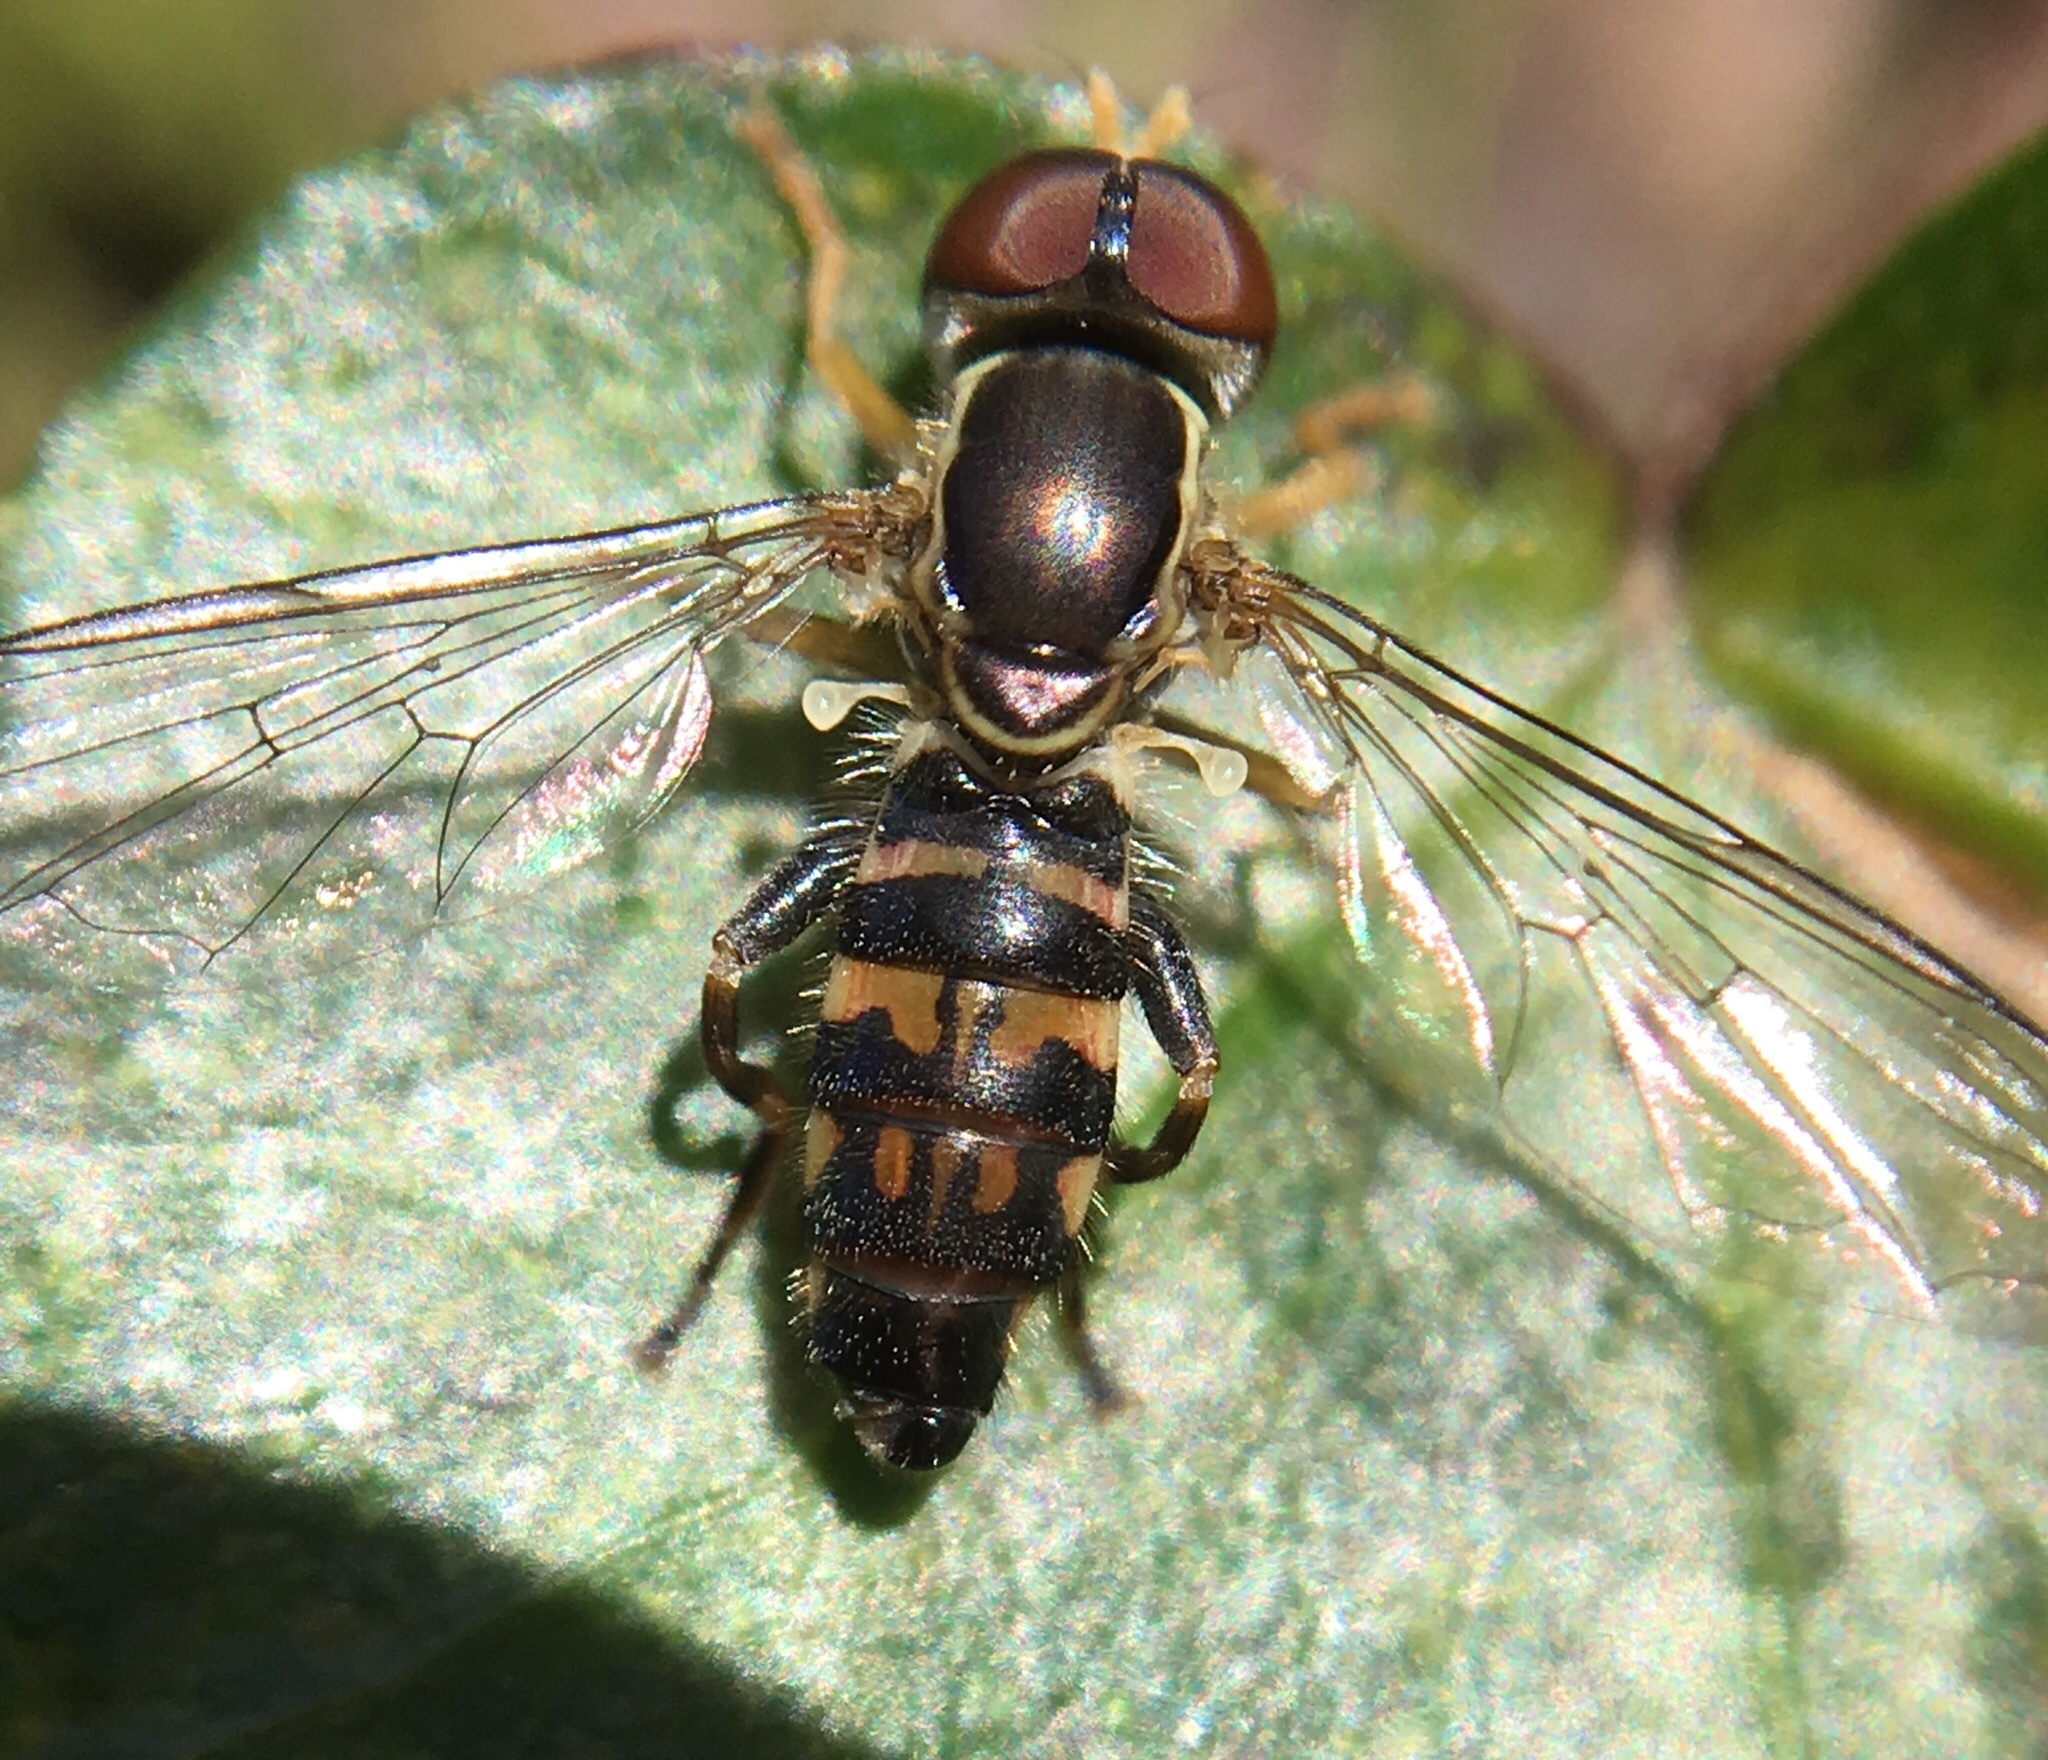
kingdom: Animalia
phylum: Arthropoda
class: Insecta
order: Diptera
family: Syrphidae
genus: Toxomerus
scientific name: Toxomerus geminatus
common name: Eastern calligrapher
